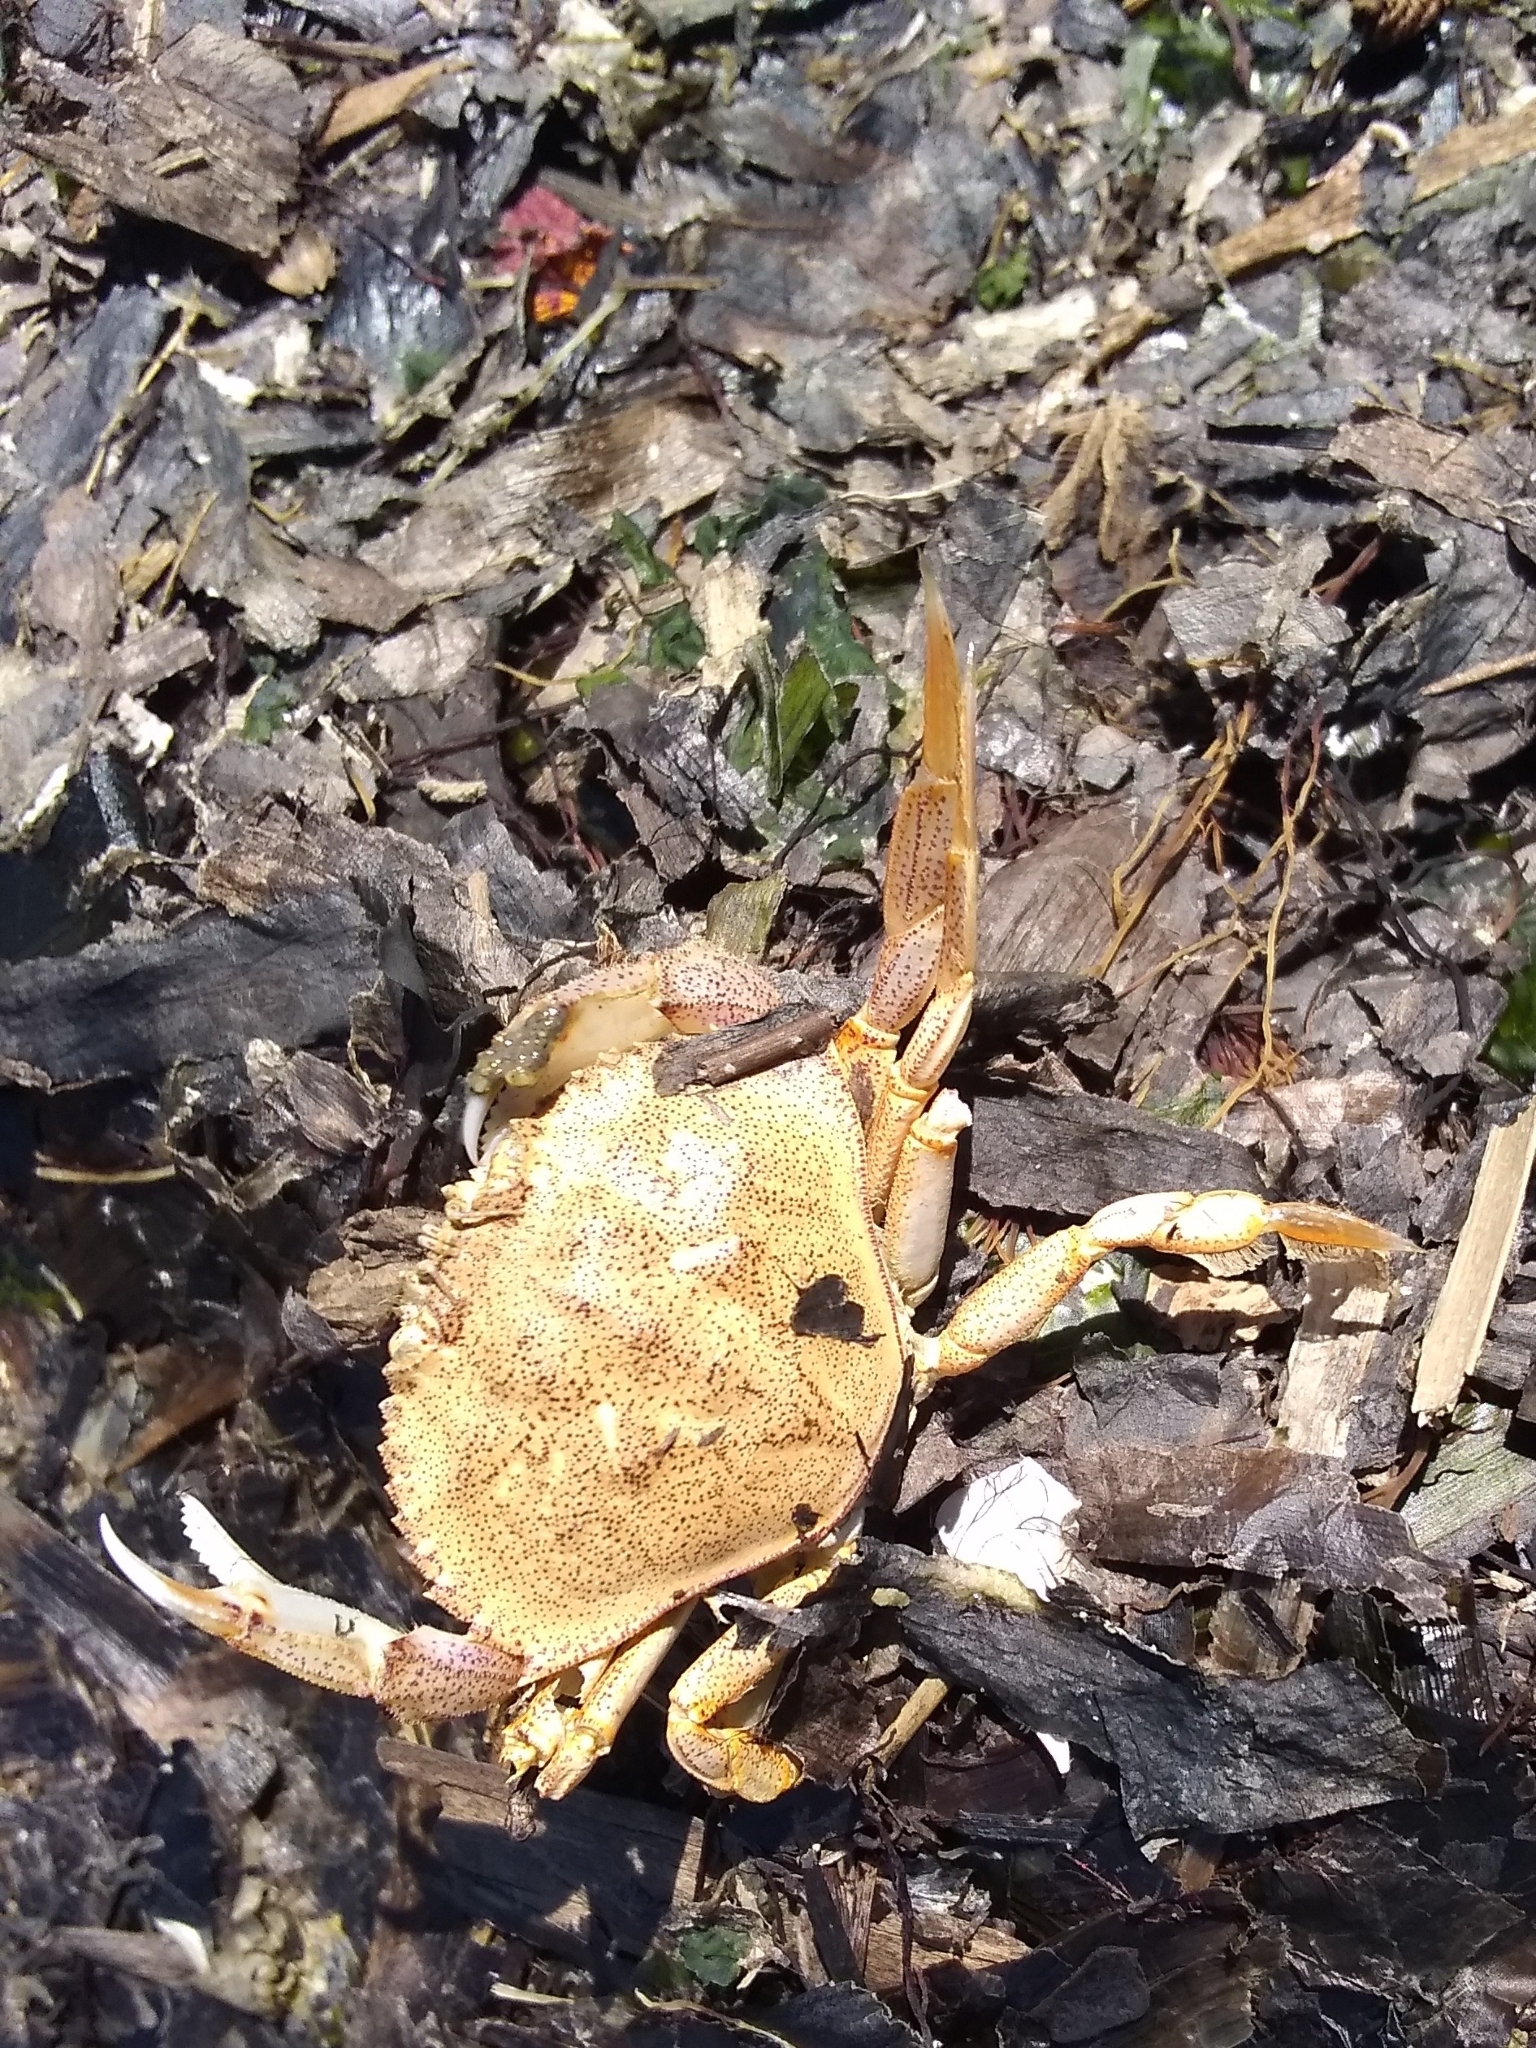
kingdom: Animalia
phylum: Arthropoda
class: Malacostraca
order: Decapoda
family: Cancridae
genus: Metacarcinus
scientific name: Metacarcinus magister
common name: Californian crab
